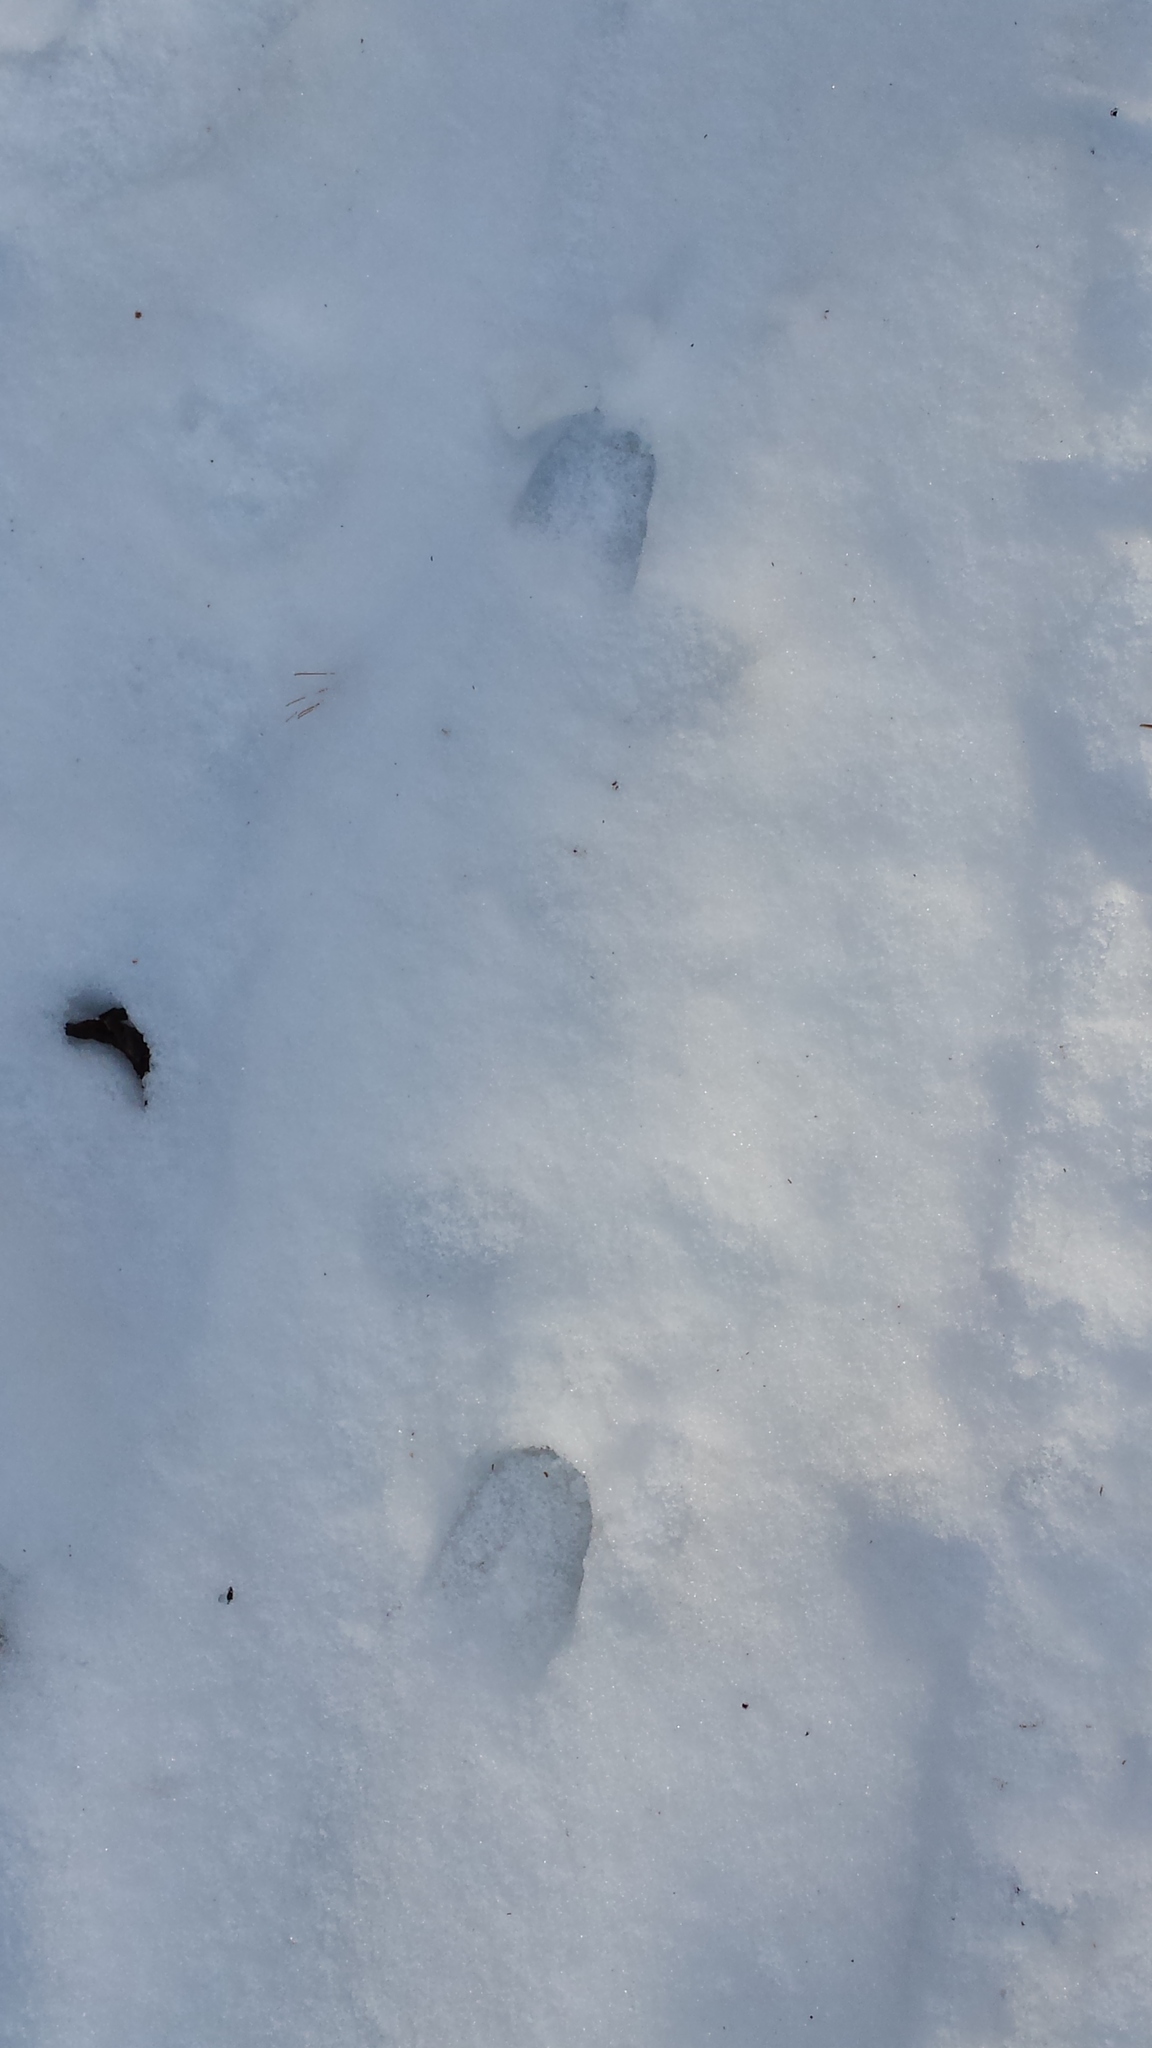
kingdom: Animalia
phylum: Chordata
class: Mammalia
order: Artiodactyla
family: Cervidae
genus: Odocoileus
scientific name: Odocoileus virginianus
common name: White-tailed deer
